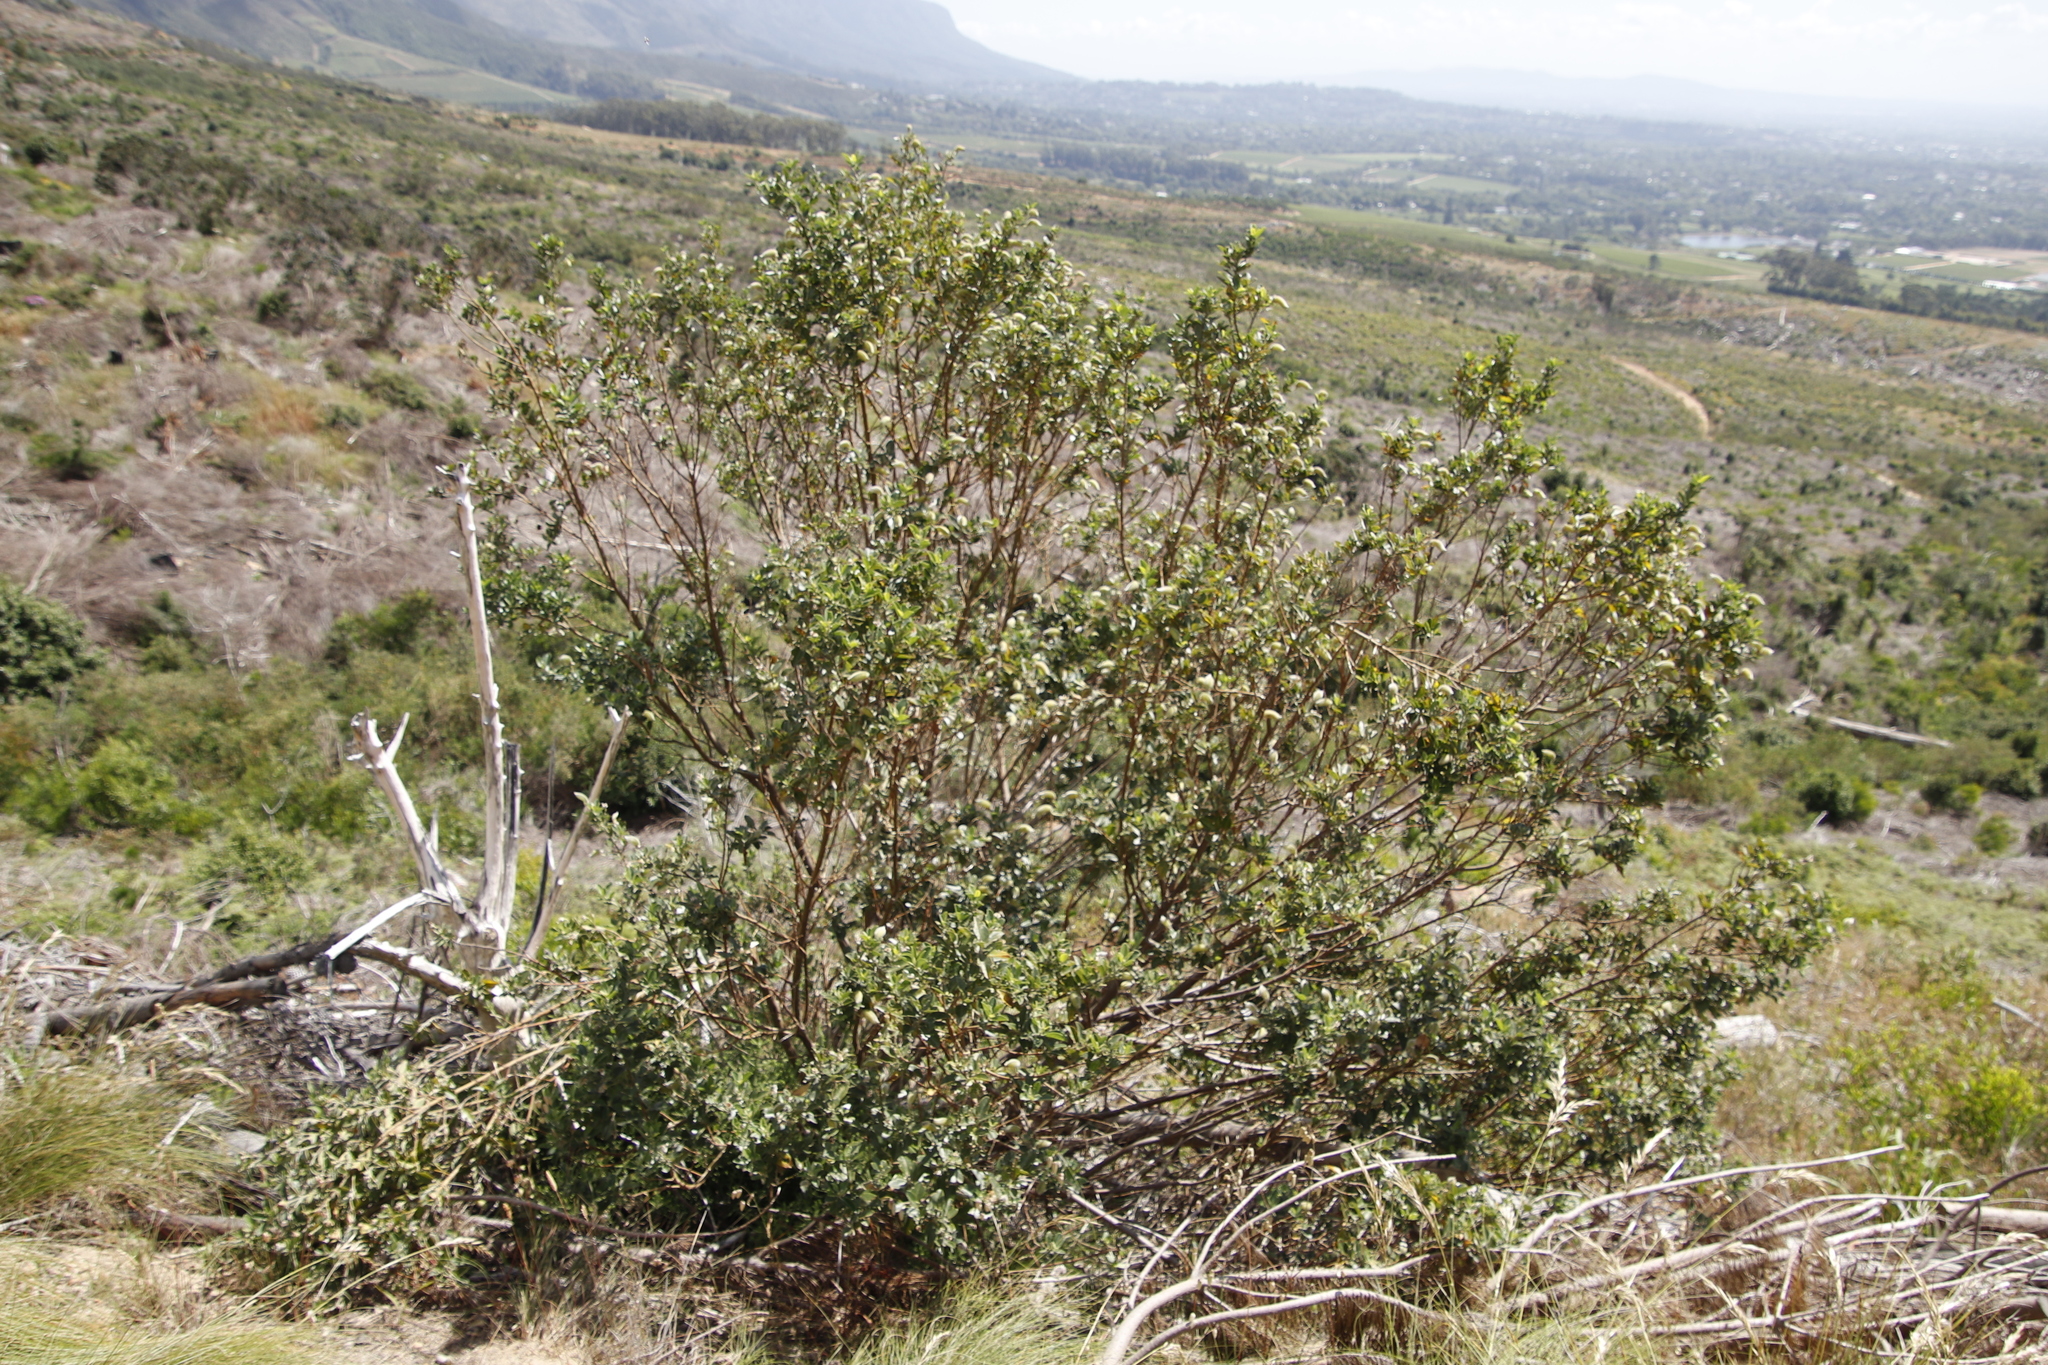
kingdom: Plantae
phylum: Tracheophyta
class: Magnoliopsida
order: Fabales
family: Fabaceae
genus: Podalyria
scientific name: Podalyria calyptrata
